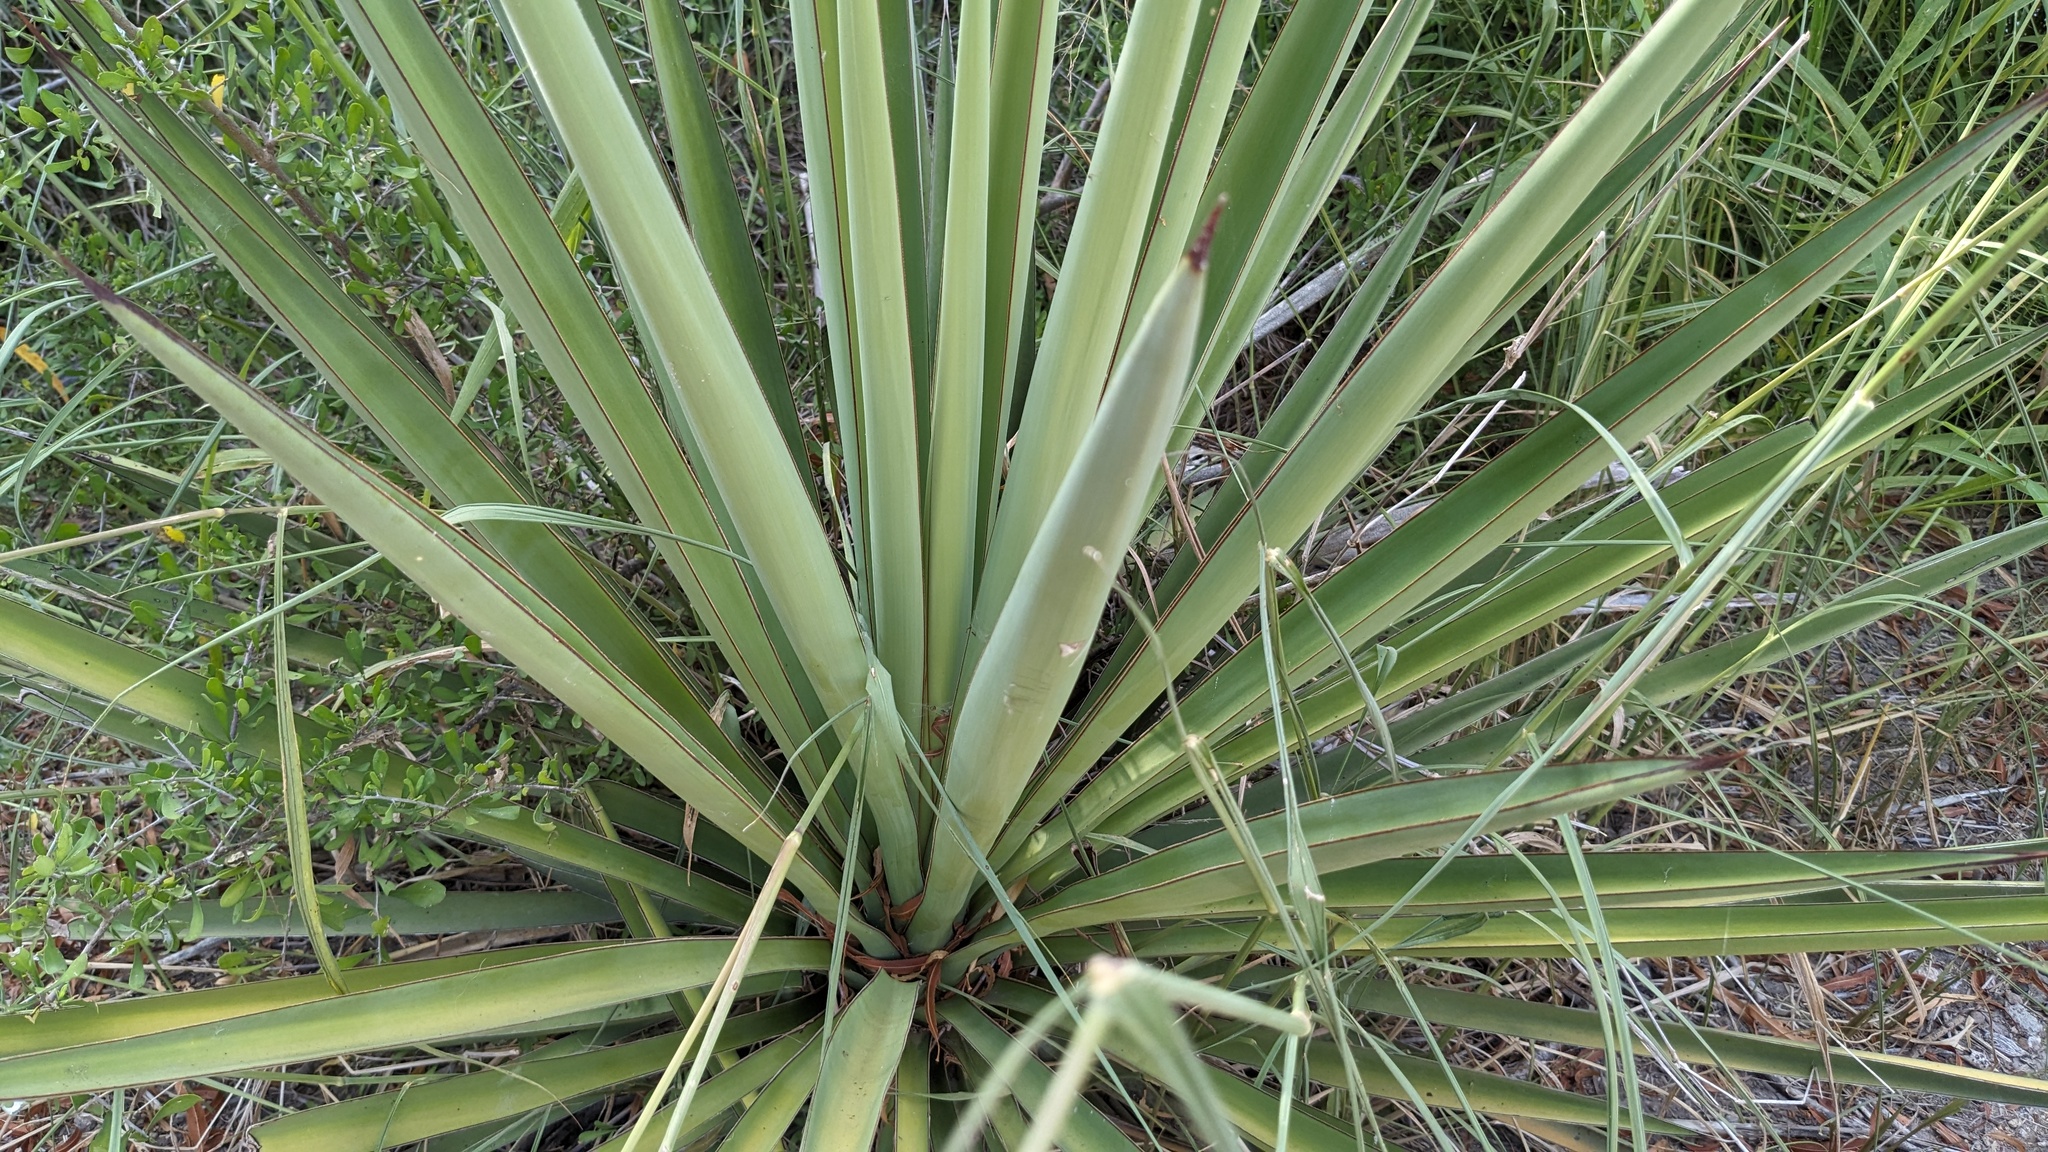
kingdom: Plantae
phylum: Tracheophyta
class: Liliopsida
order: Asparagales
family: Asparagaceae
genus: Yucca
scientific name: Yucca treculiana
